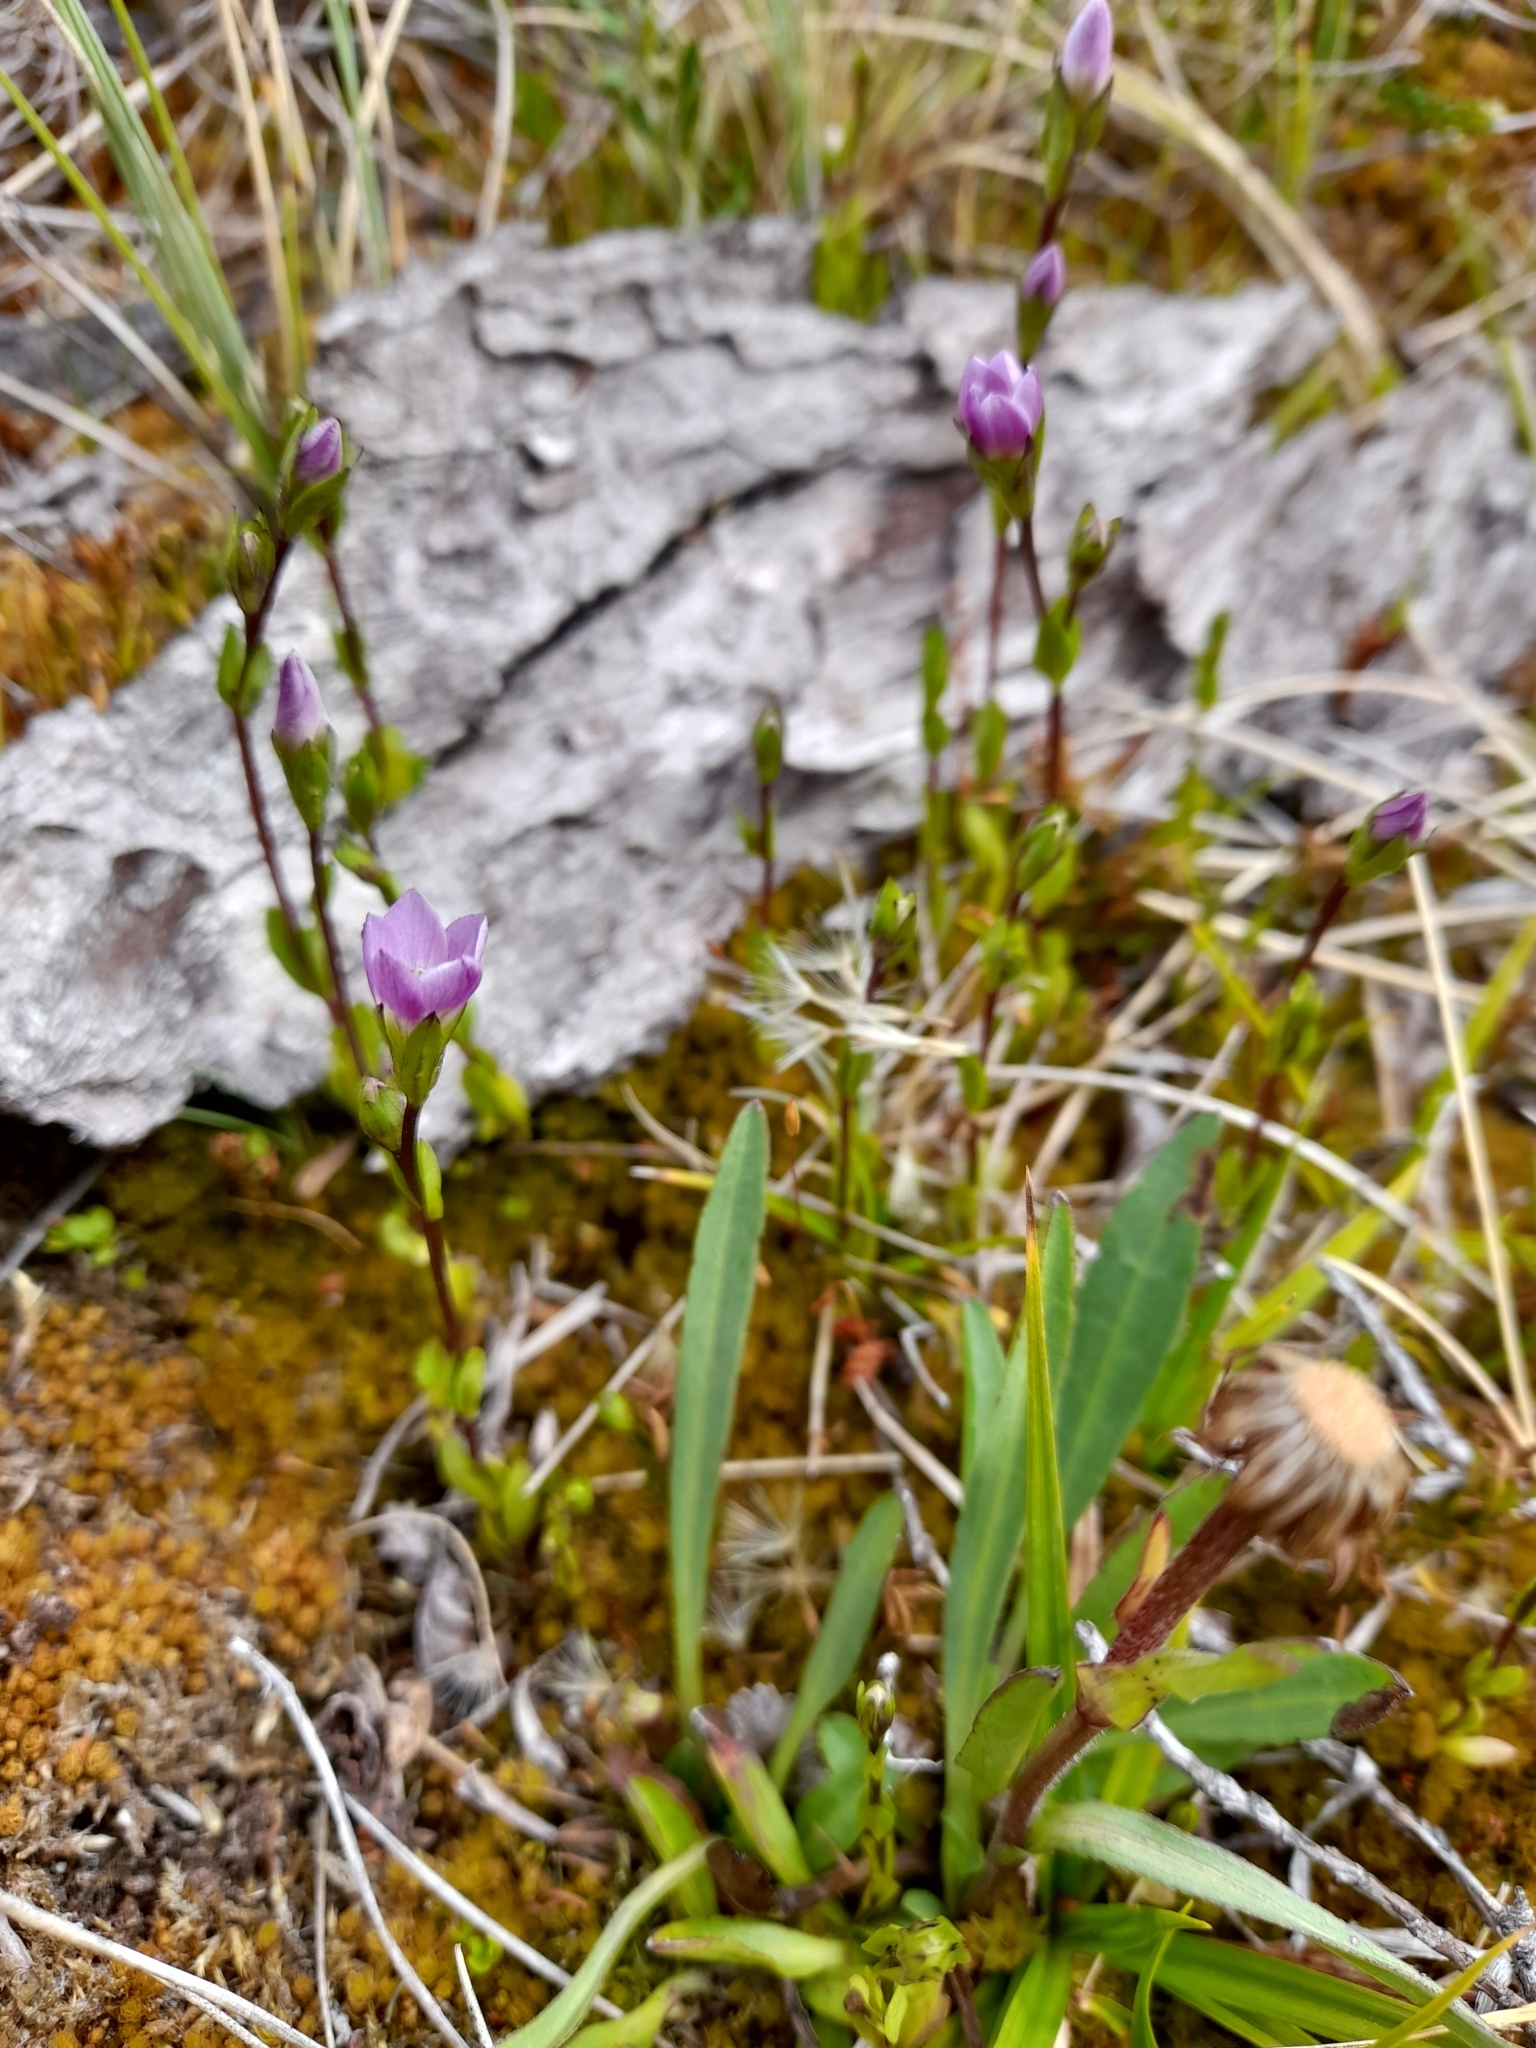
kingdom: Plantae
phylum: Tracheophyta
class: Magnoliopsida
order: Gentianales
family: Gentianaceae
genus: Gentianella
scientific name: Gentianella magellanica
